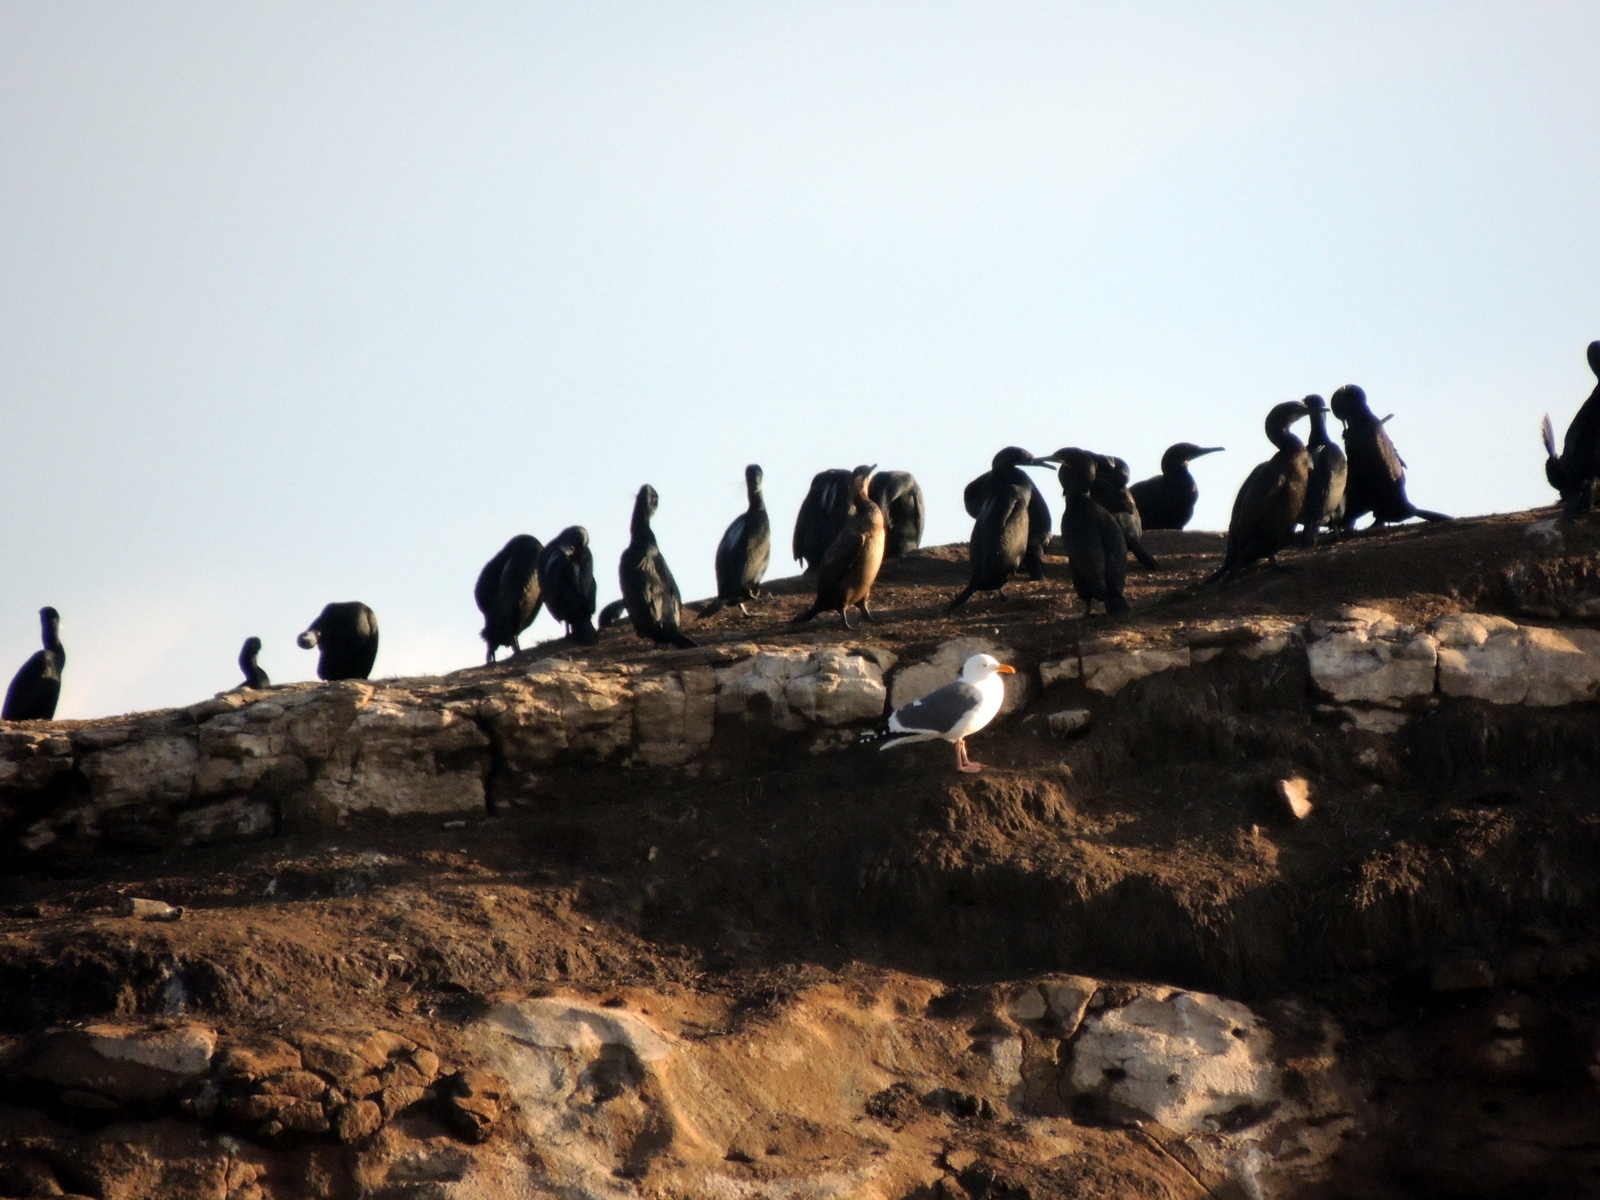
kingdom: Animalia
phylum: Chordata
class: Aves
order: Charadriiformes
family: Laridae
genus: Larus
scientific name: Larus occidentalis
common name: Western gull
